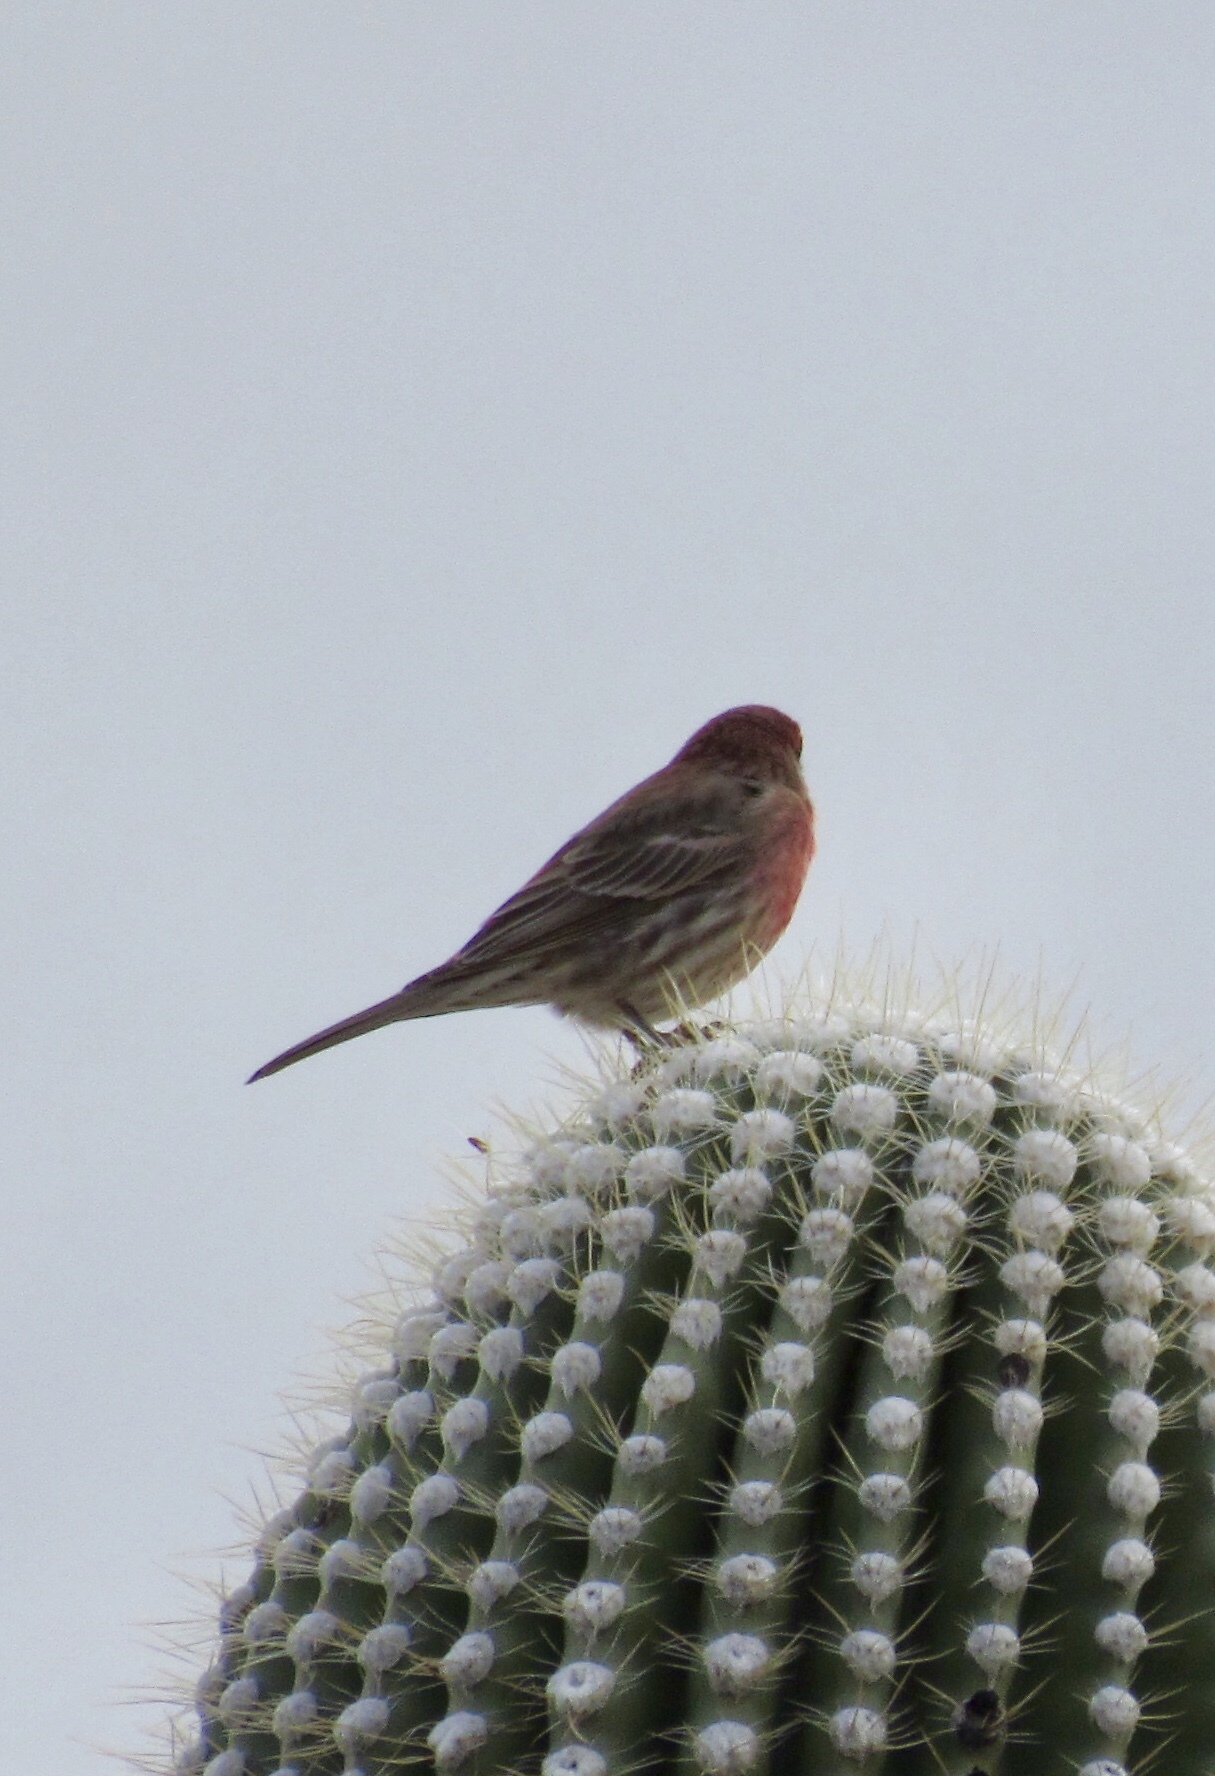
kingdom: Animalia
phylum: Chordata
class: Aves
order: Passeriformes
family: Fringillidae
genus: Haemorhous
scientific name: Haemorhous mexicanus
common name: House finch
